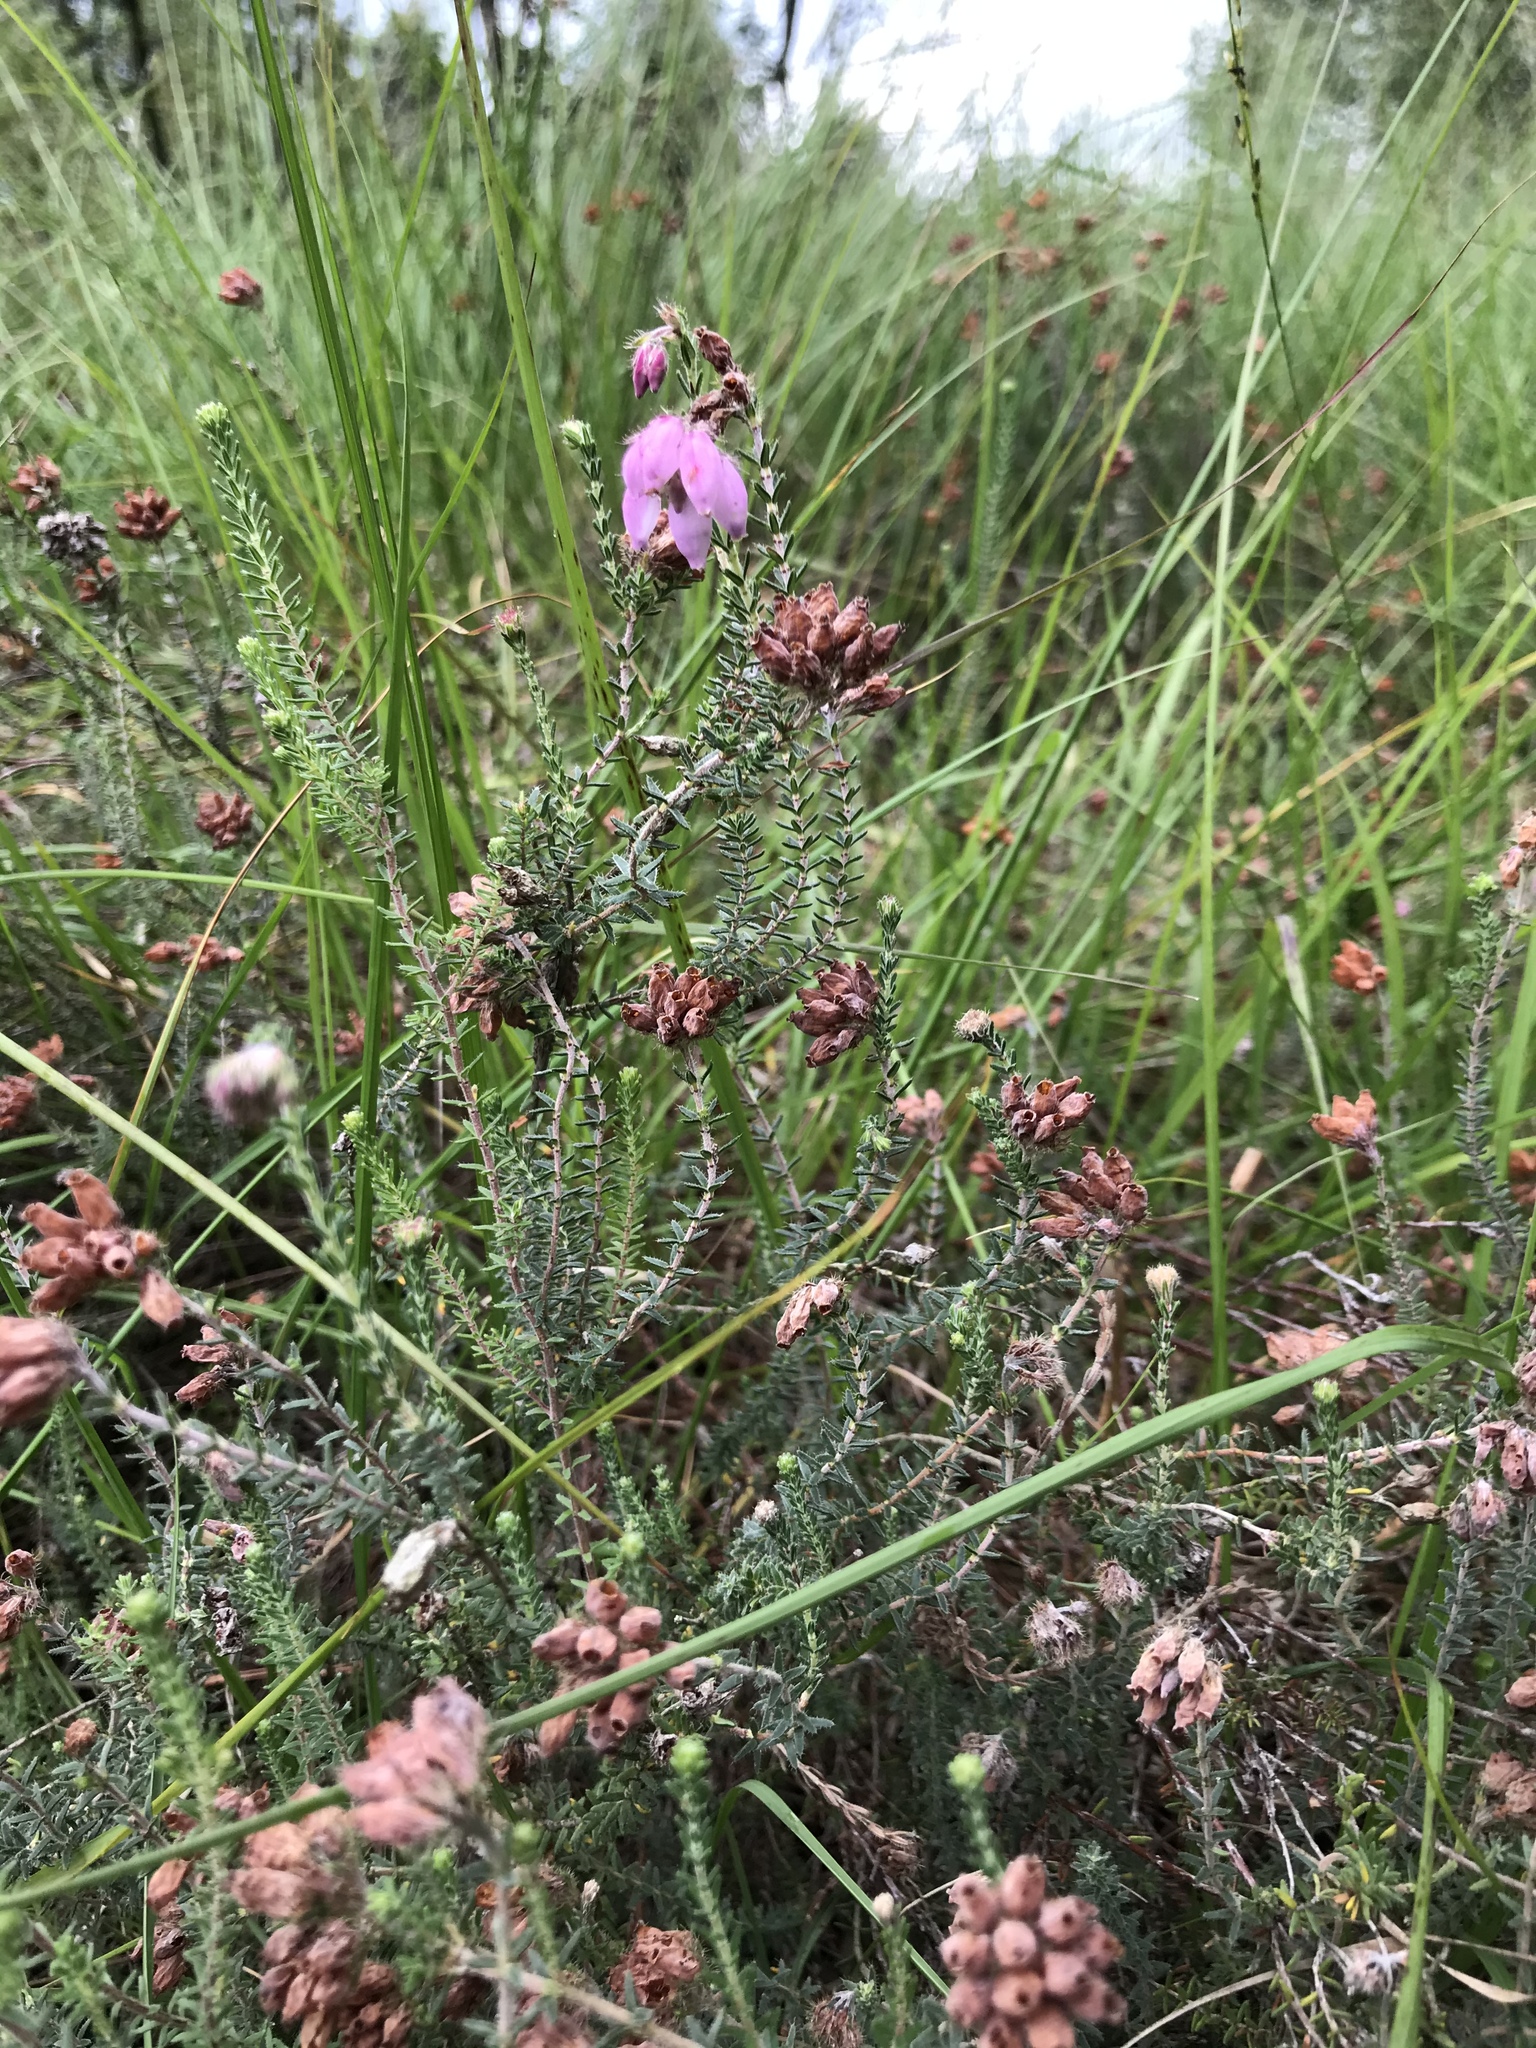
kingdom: Plantae
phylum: Tracheophyta
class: Magnoliopsida
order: Ericales
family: Ericaceae
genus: Erica
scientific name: Erica tetralix
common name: Cross-leaved heath
